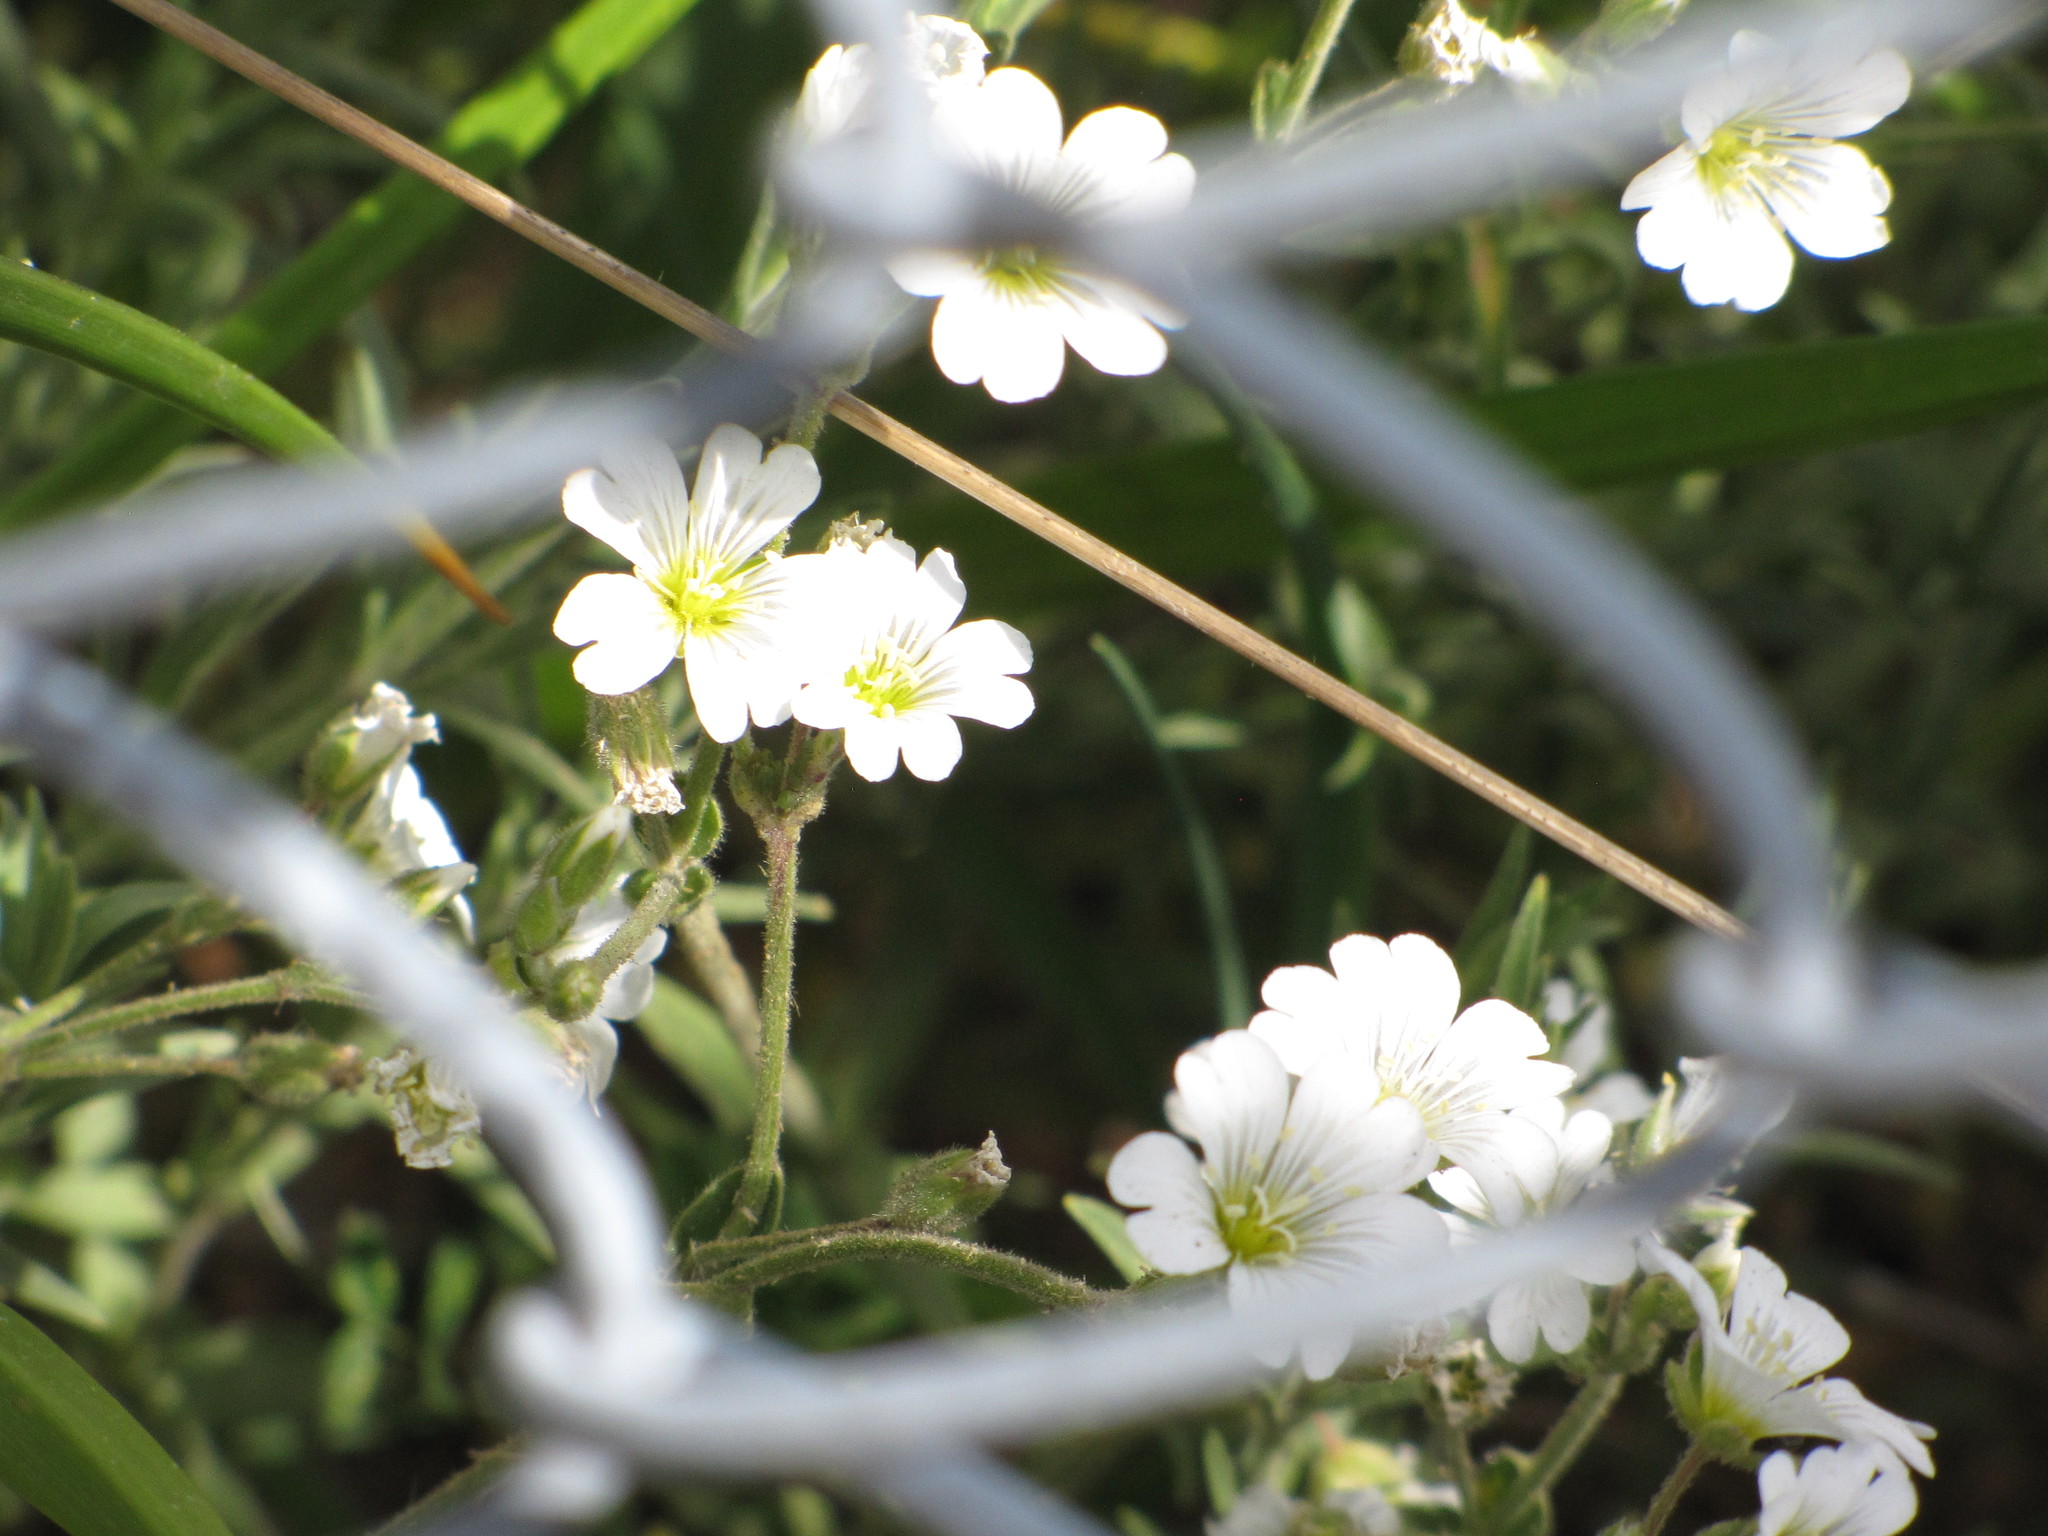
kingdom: Plantae
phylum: Tracheophyta
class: Magnoliopsida
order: Caryophyllales
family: Caryophyllaceae
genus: Cerastium
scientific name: Cerastium arvense
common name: Field mouse-ear
